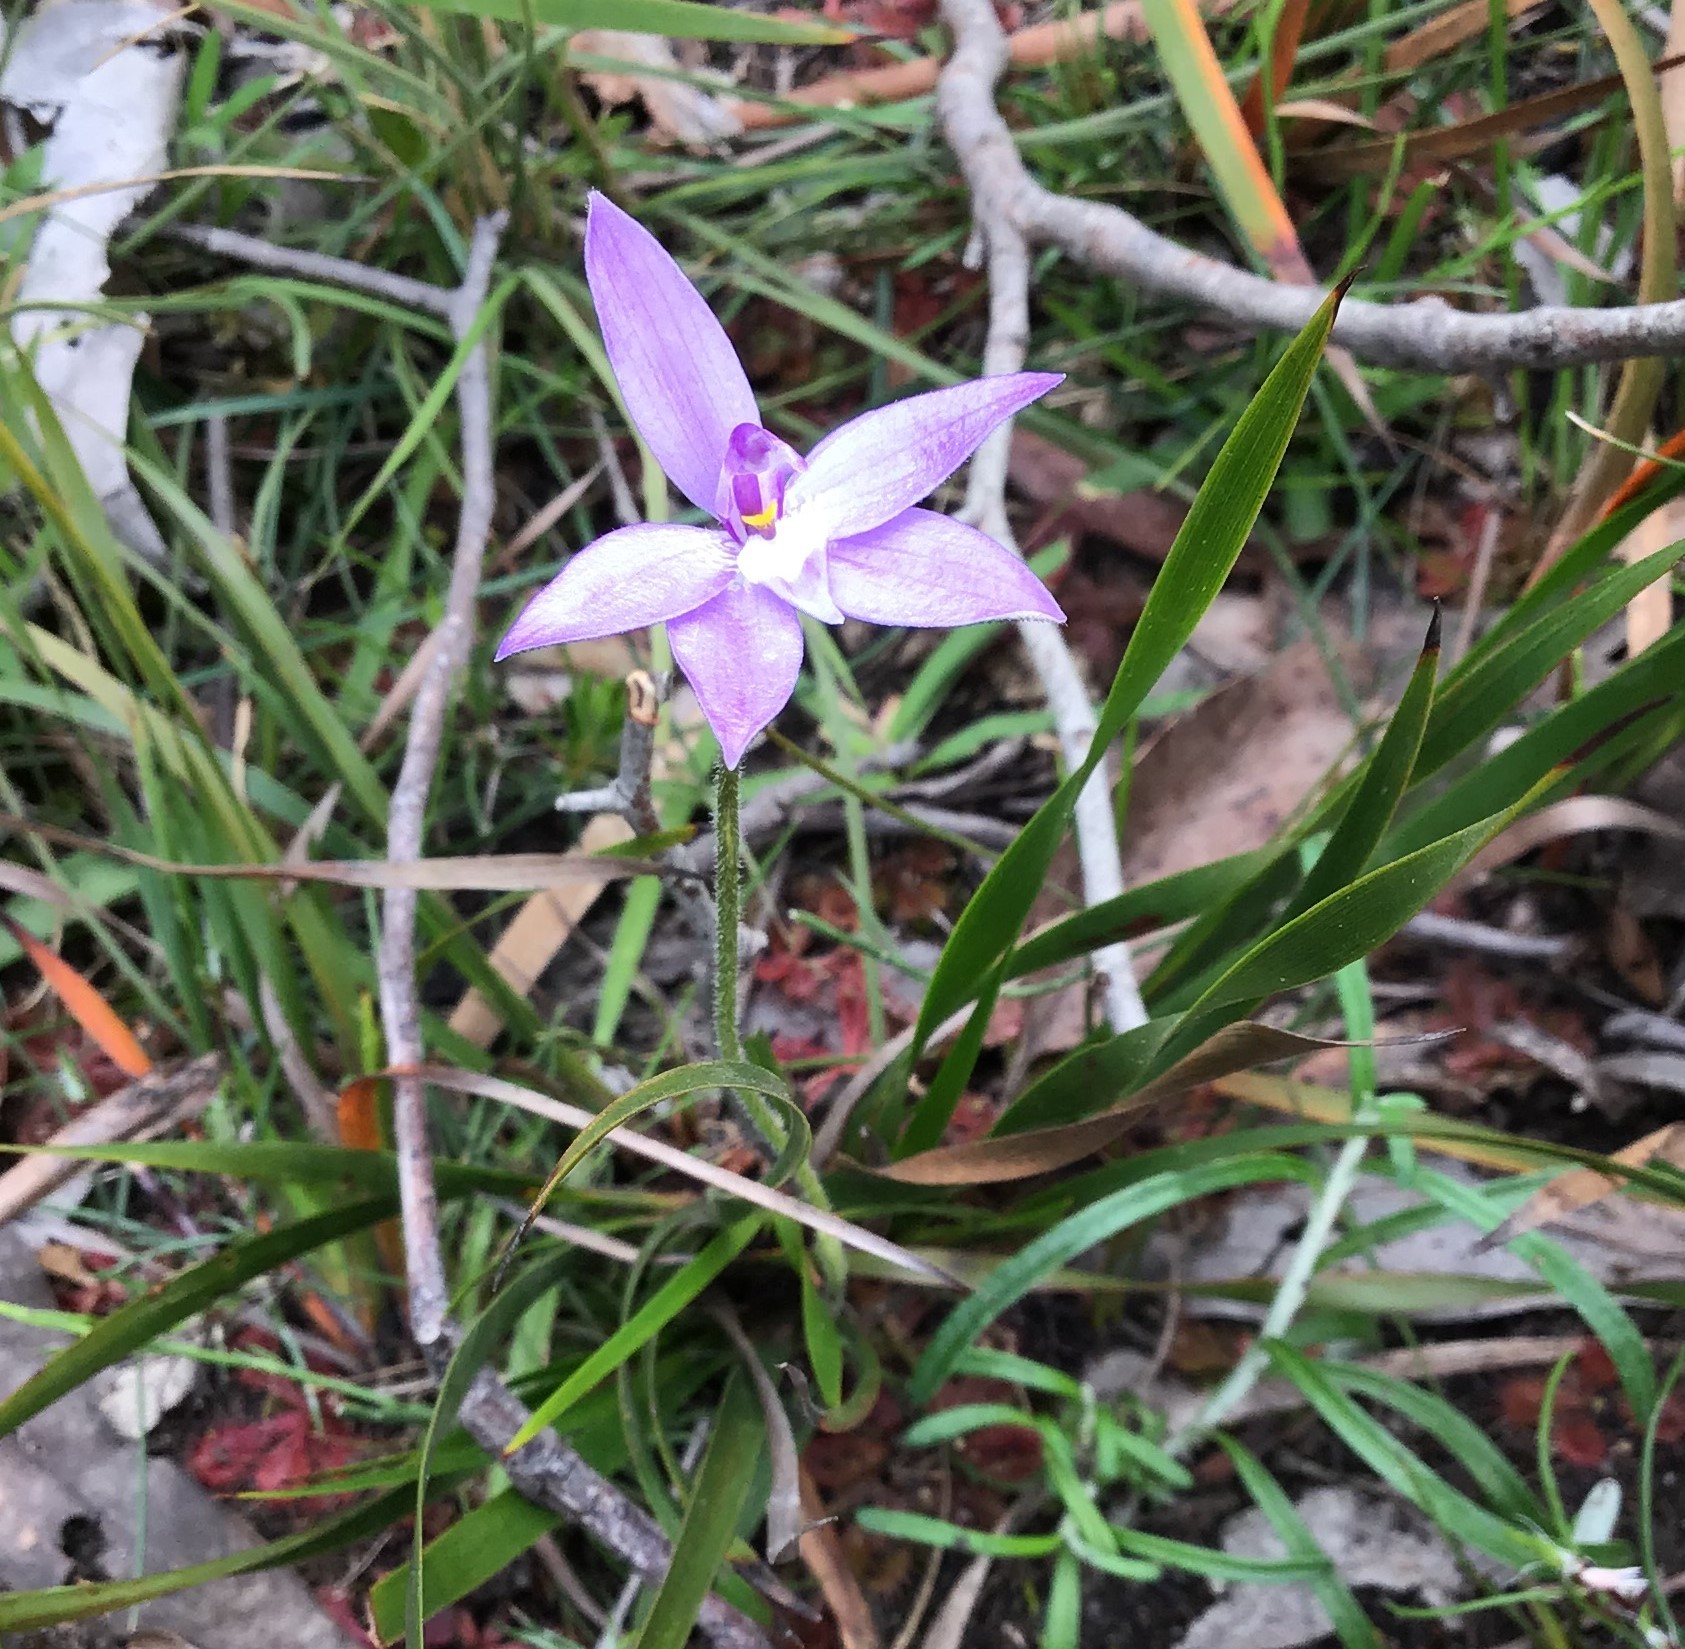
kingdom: Plantae
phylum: Tracheophyta
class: Liliopsida
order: Asparagales
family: Orchidaceae
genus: Caladenia
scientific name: Caladenia major
